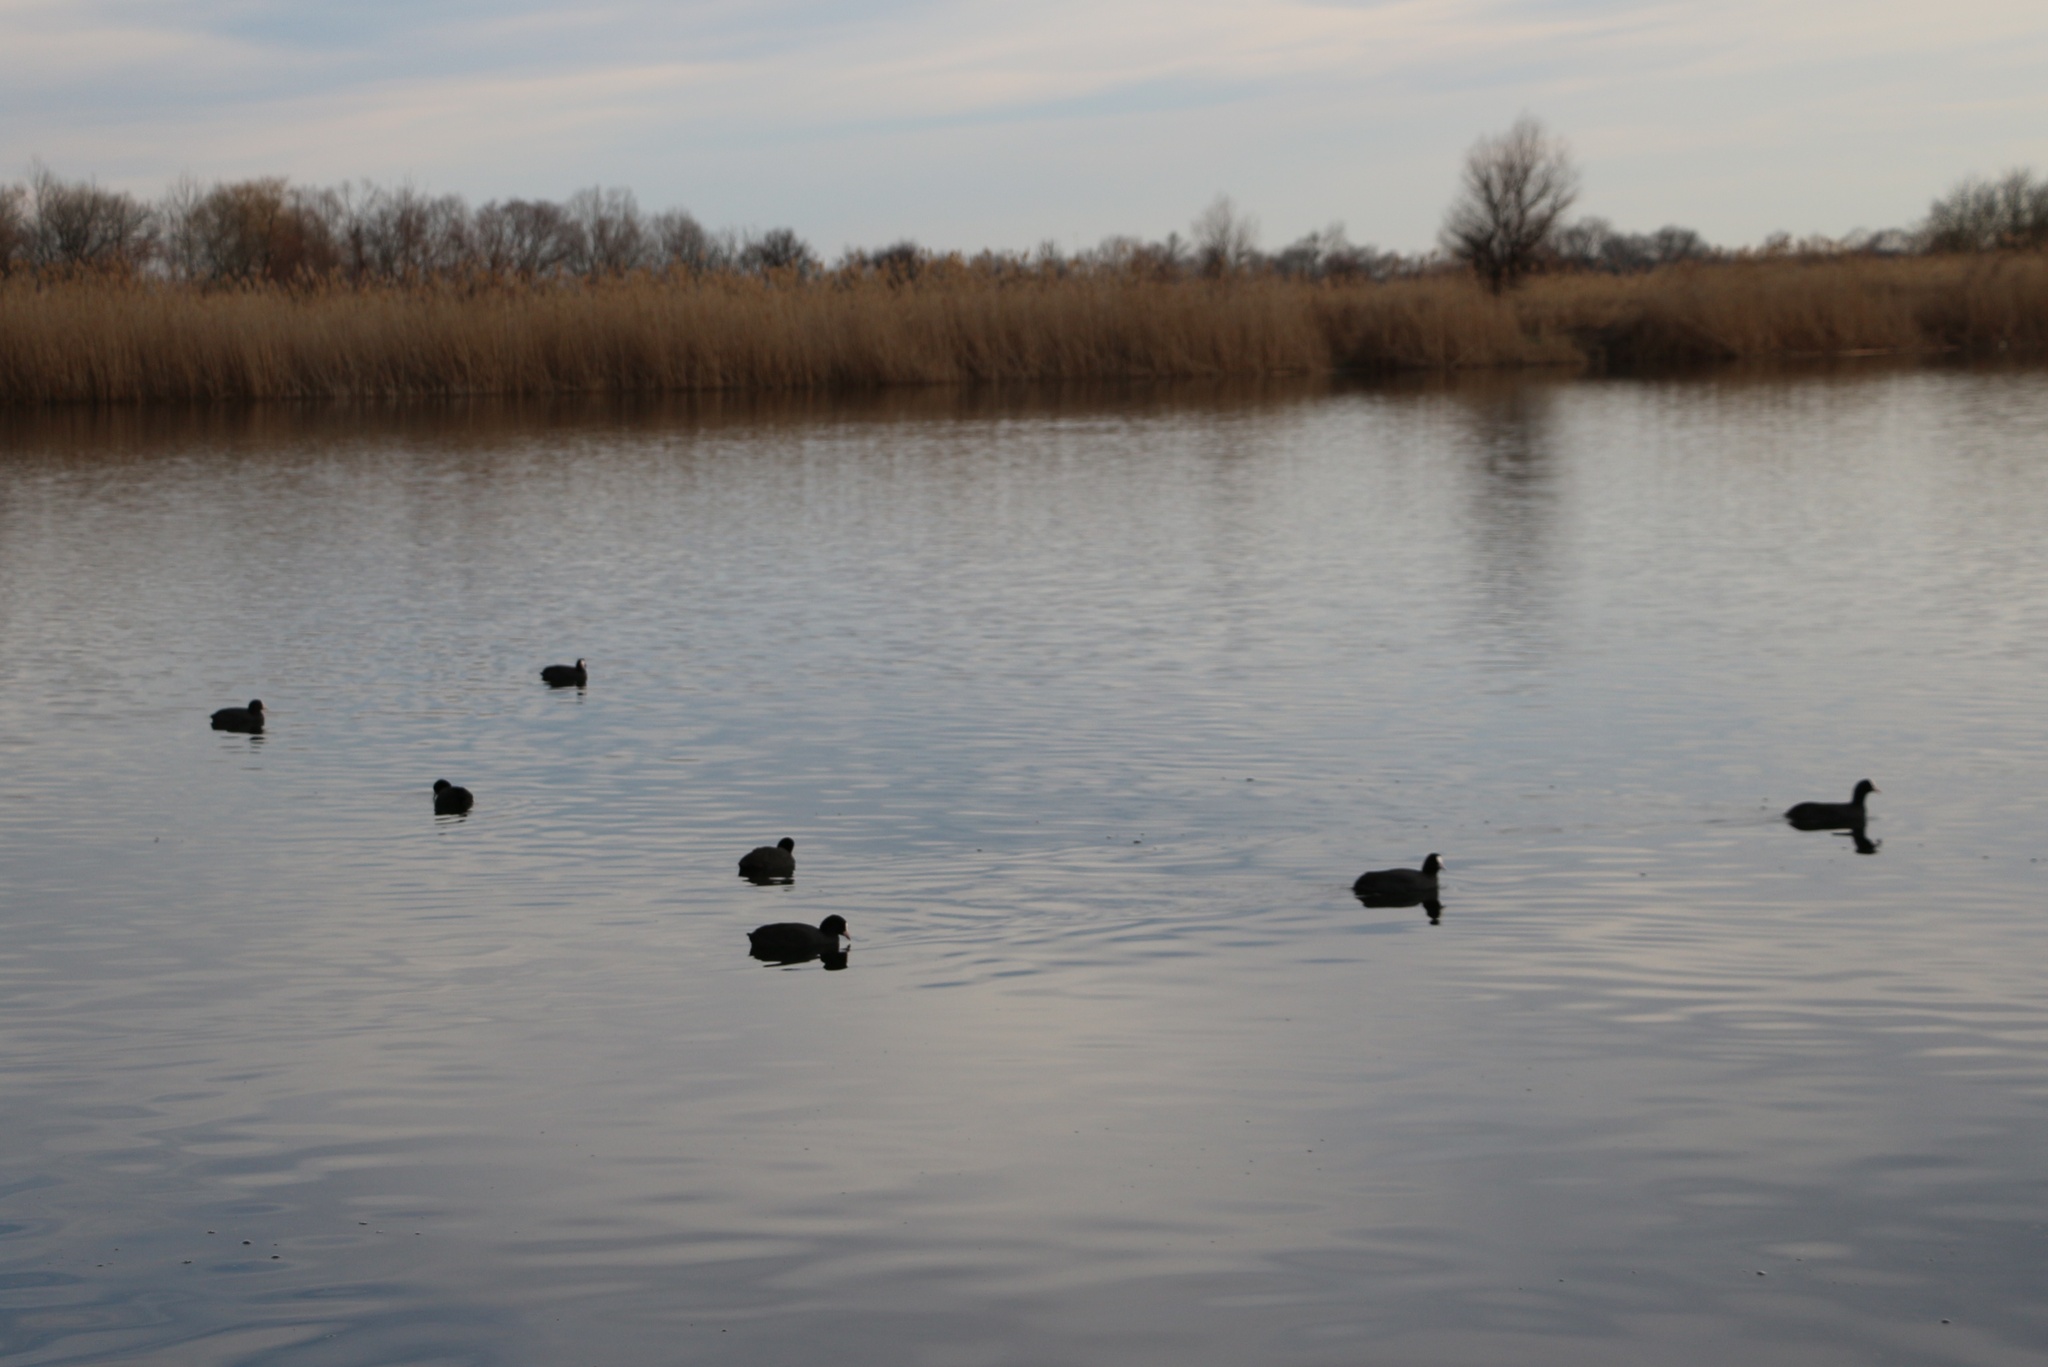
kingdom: Animalia
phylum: Chordata
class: Aves
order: Gruiformes
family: Rallidae
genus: Fulica
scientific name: Fulica atra
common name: Eurasian coot
